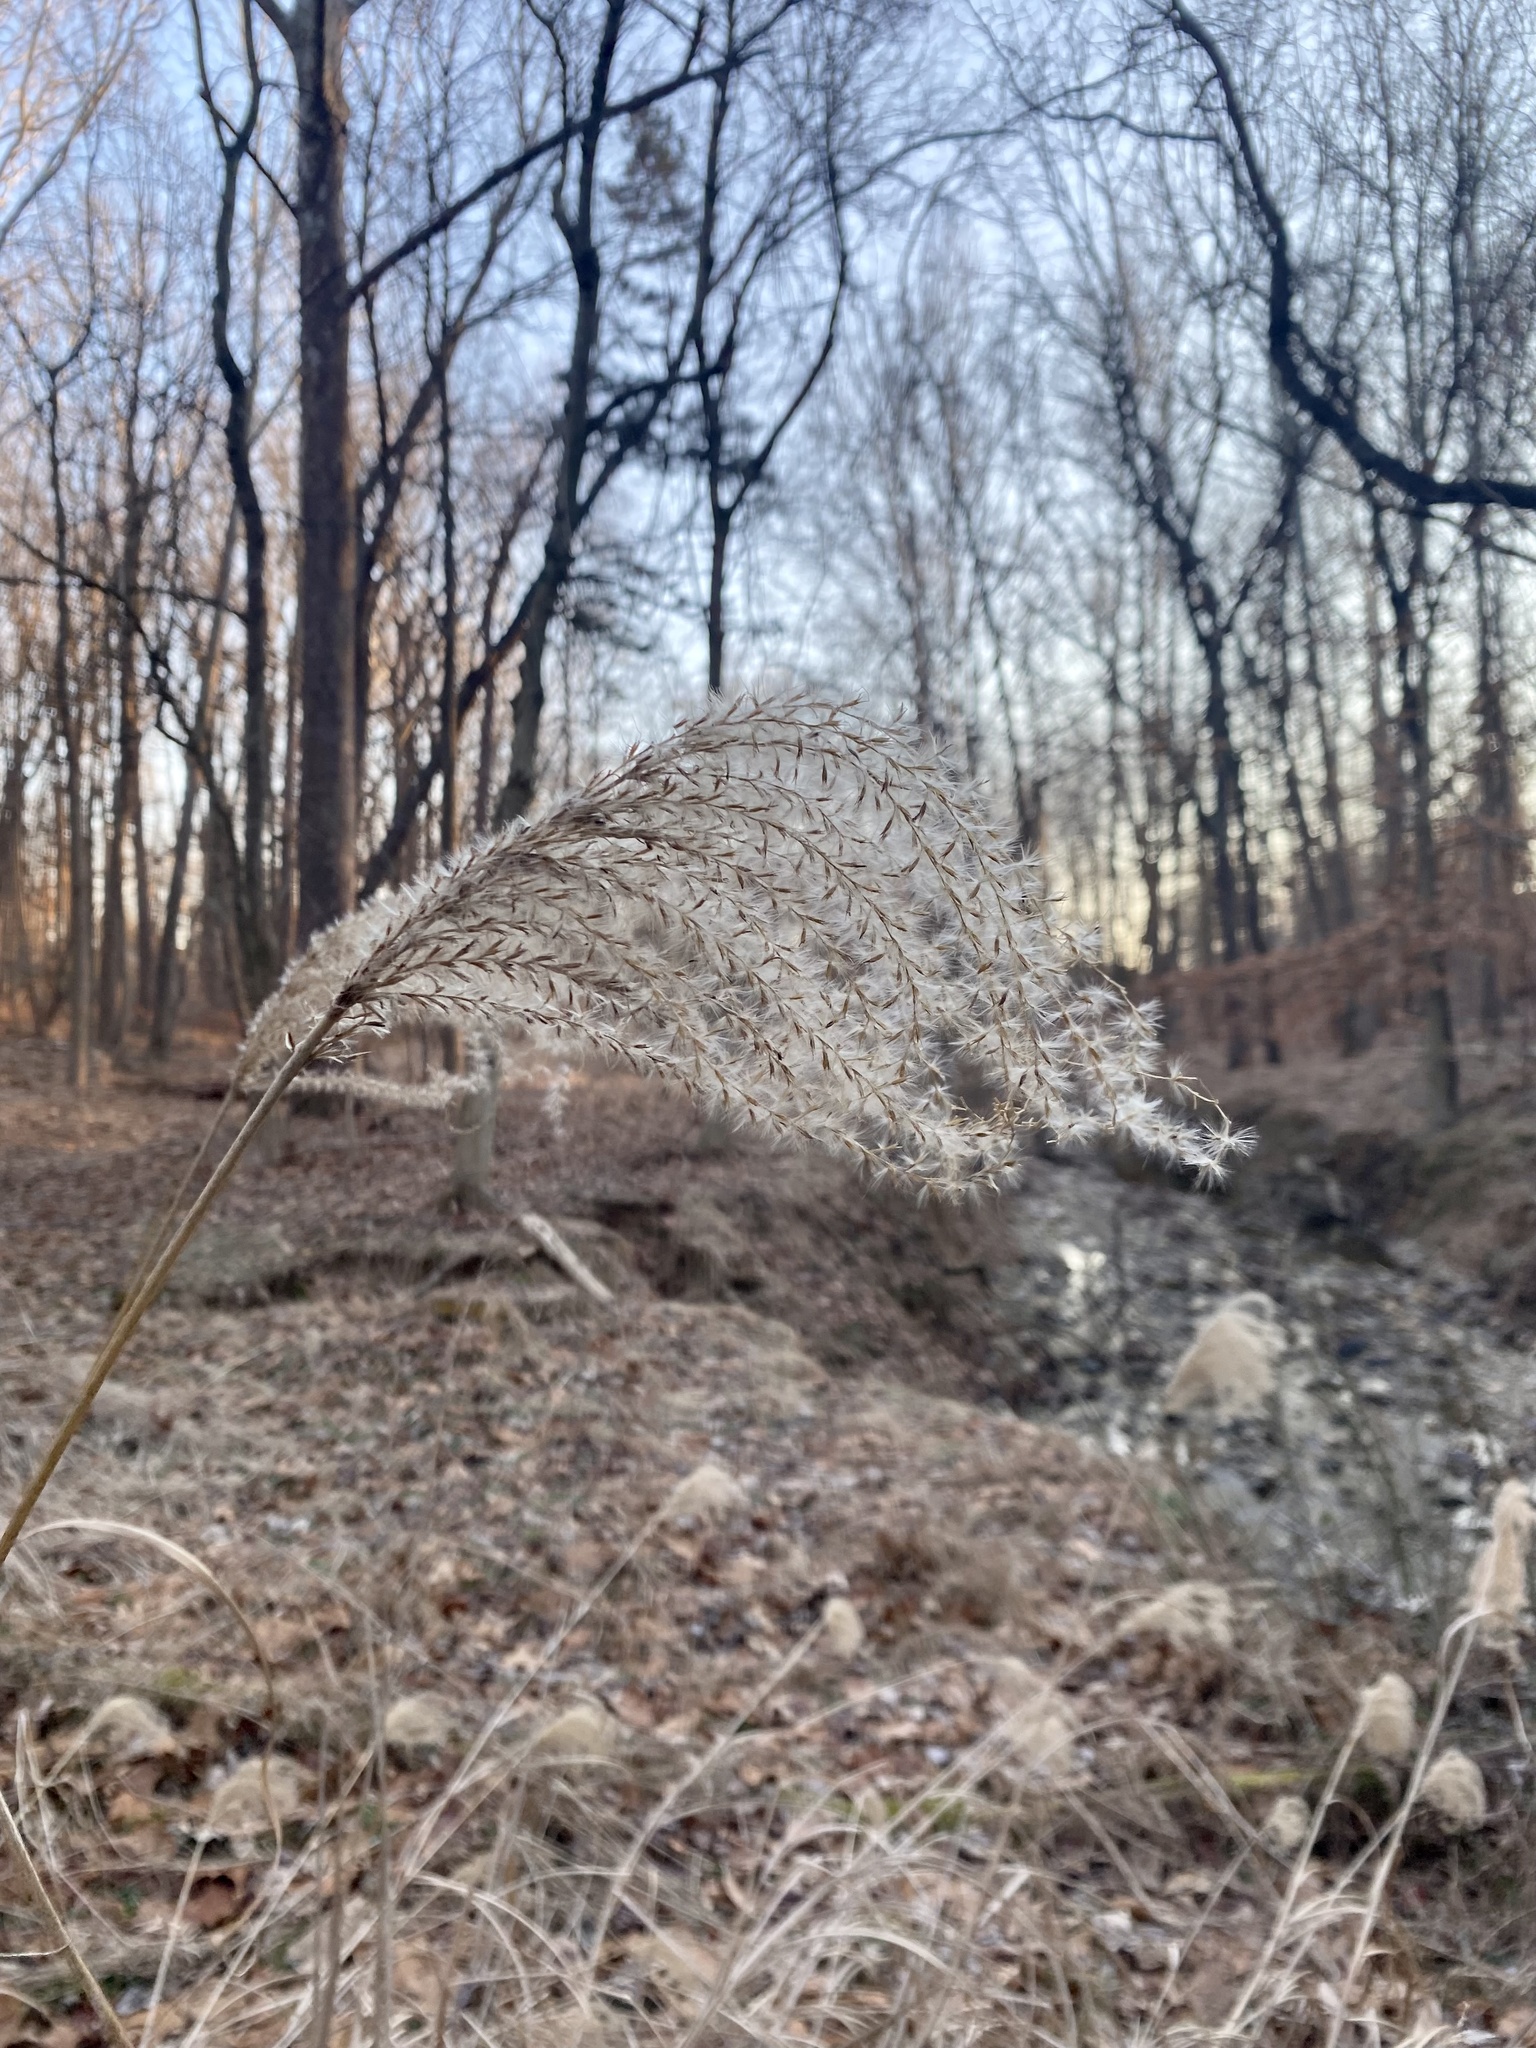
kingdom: Plantae
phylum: Tracheophyta
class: Liliopsida
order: Poales
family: Poaceae
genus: Miscanthus
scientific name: Miscanthus sinensis
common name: Chinese silvergrass
